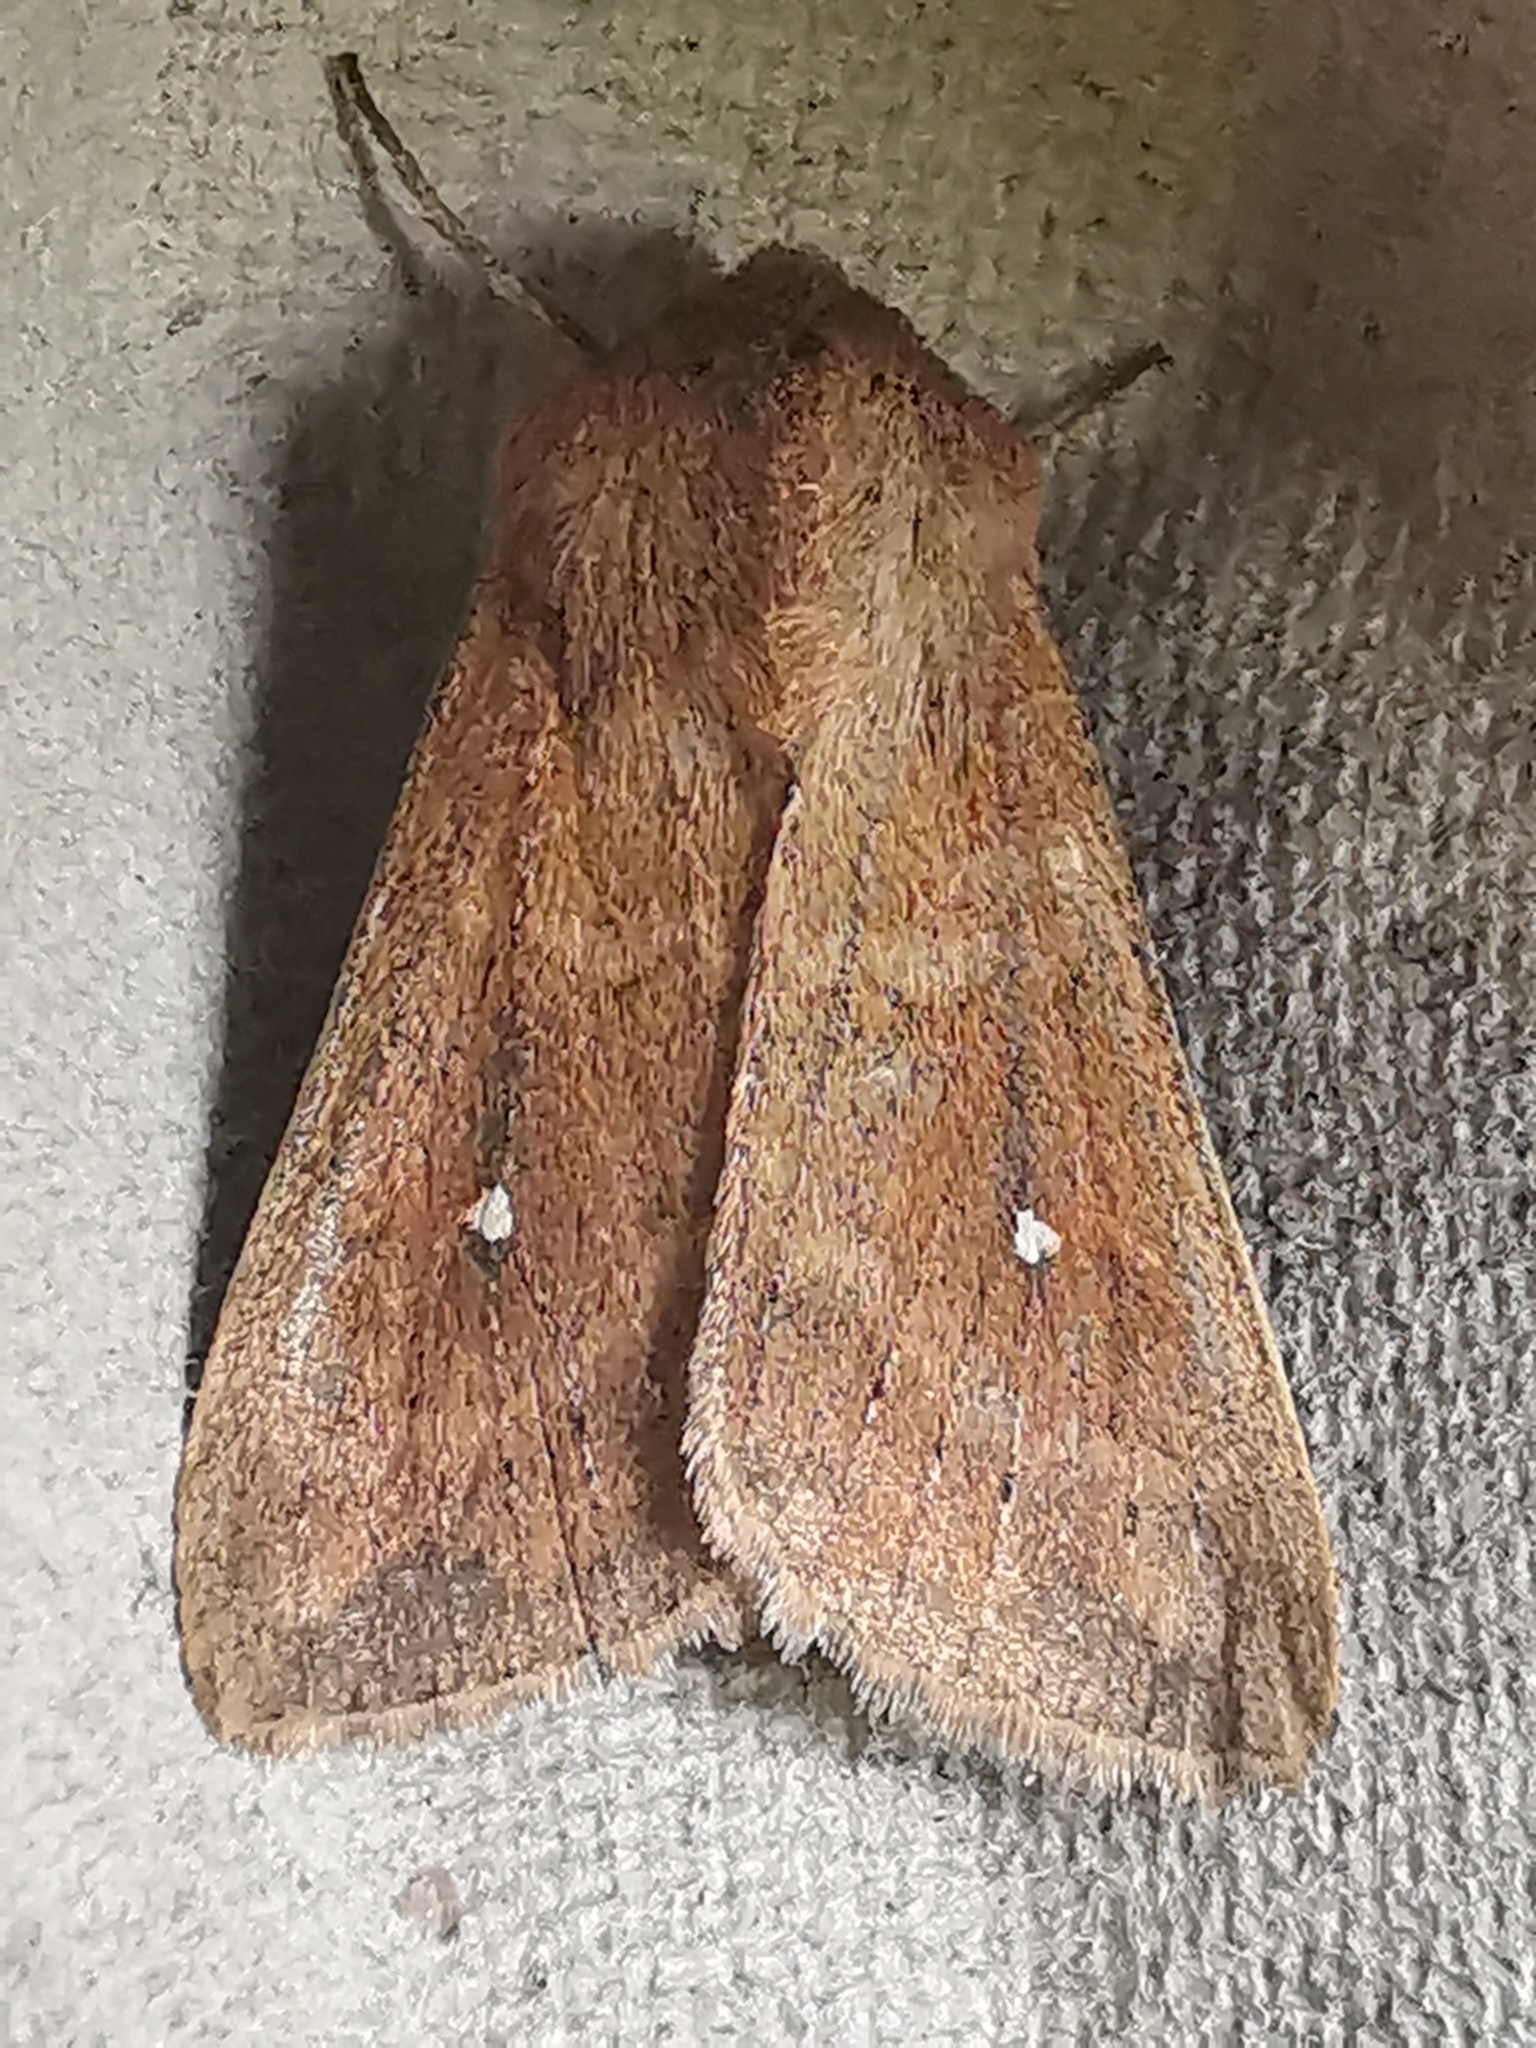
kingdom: Animalia
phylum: Arthropoda
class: Insecta
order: Lepidoptera
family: Noctuidae
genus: Mythimna
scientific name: Mythimna albipuncta
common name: White-point
